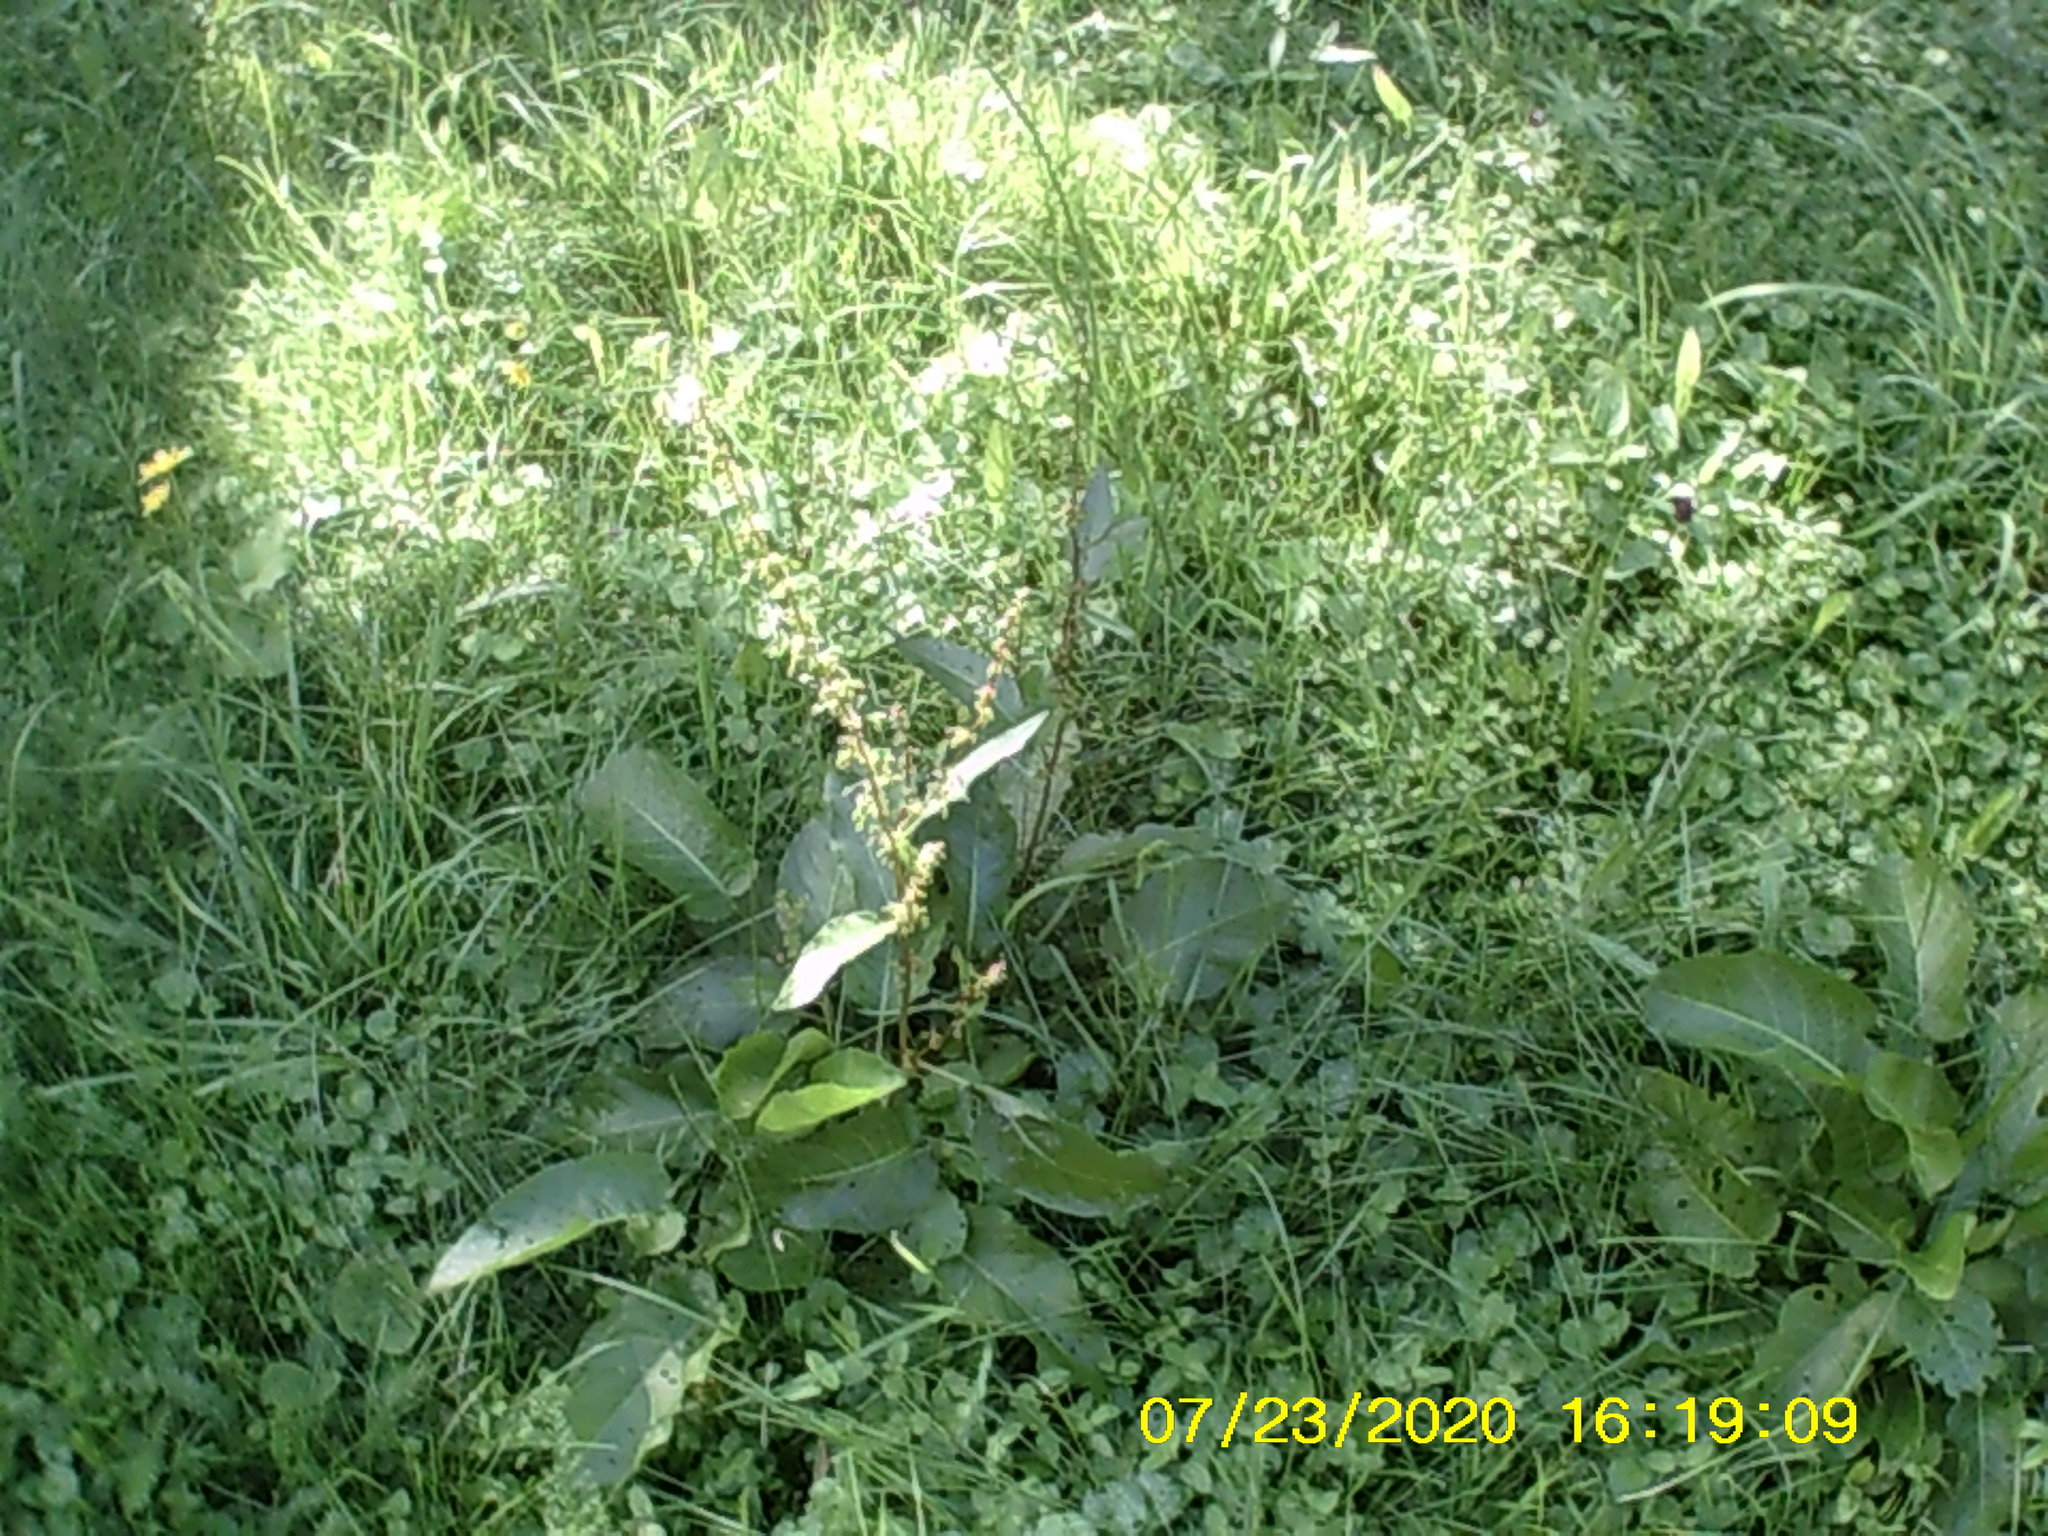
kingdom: Plantae
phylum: Tracheophyta
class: Magnoliopsida
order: Caryophyllales
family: Polygonaceae
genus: Rumex
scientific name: Rumex obtusifolius
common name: Bitter dock
